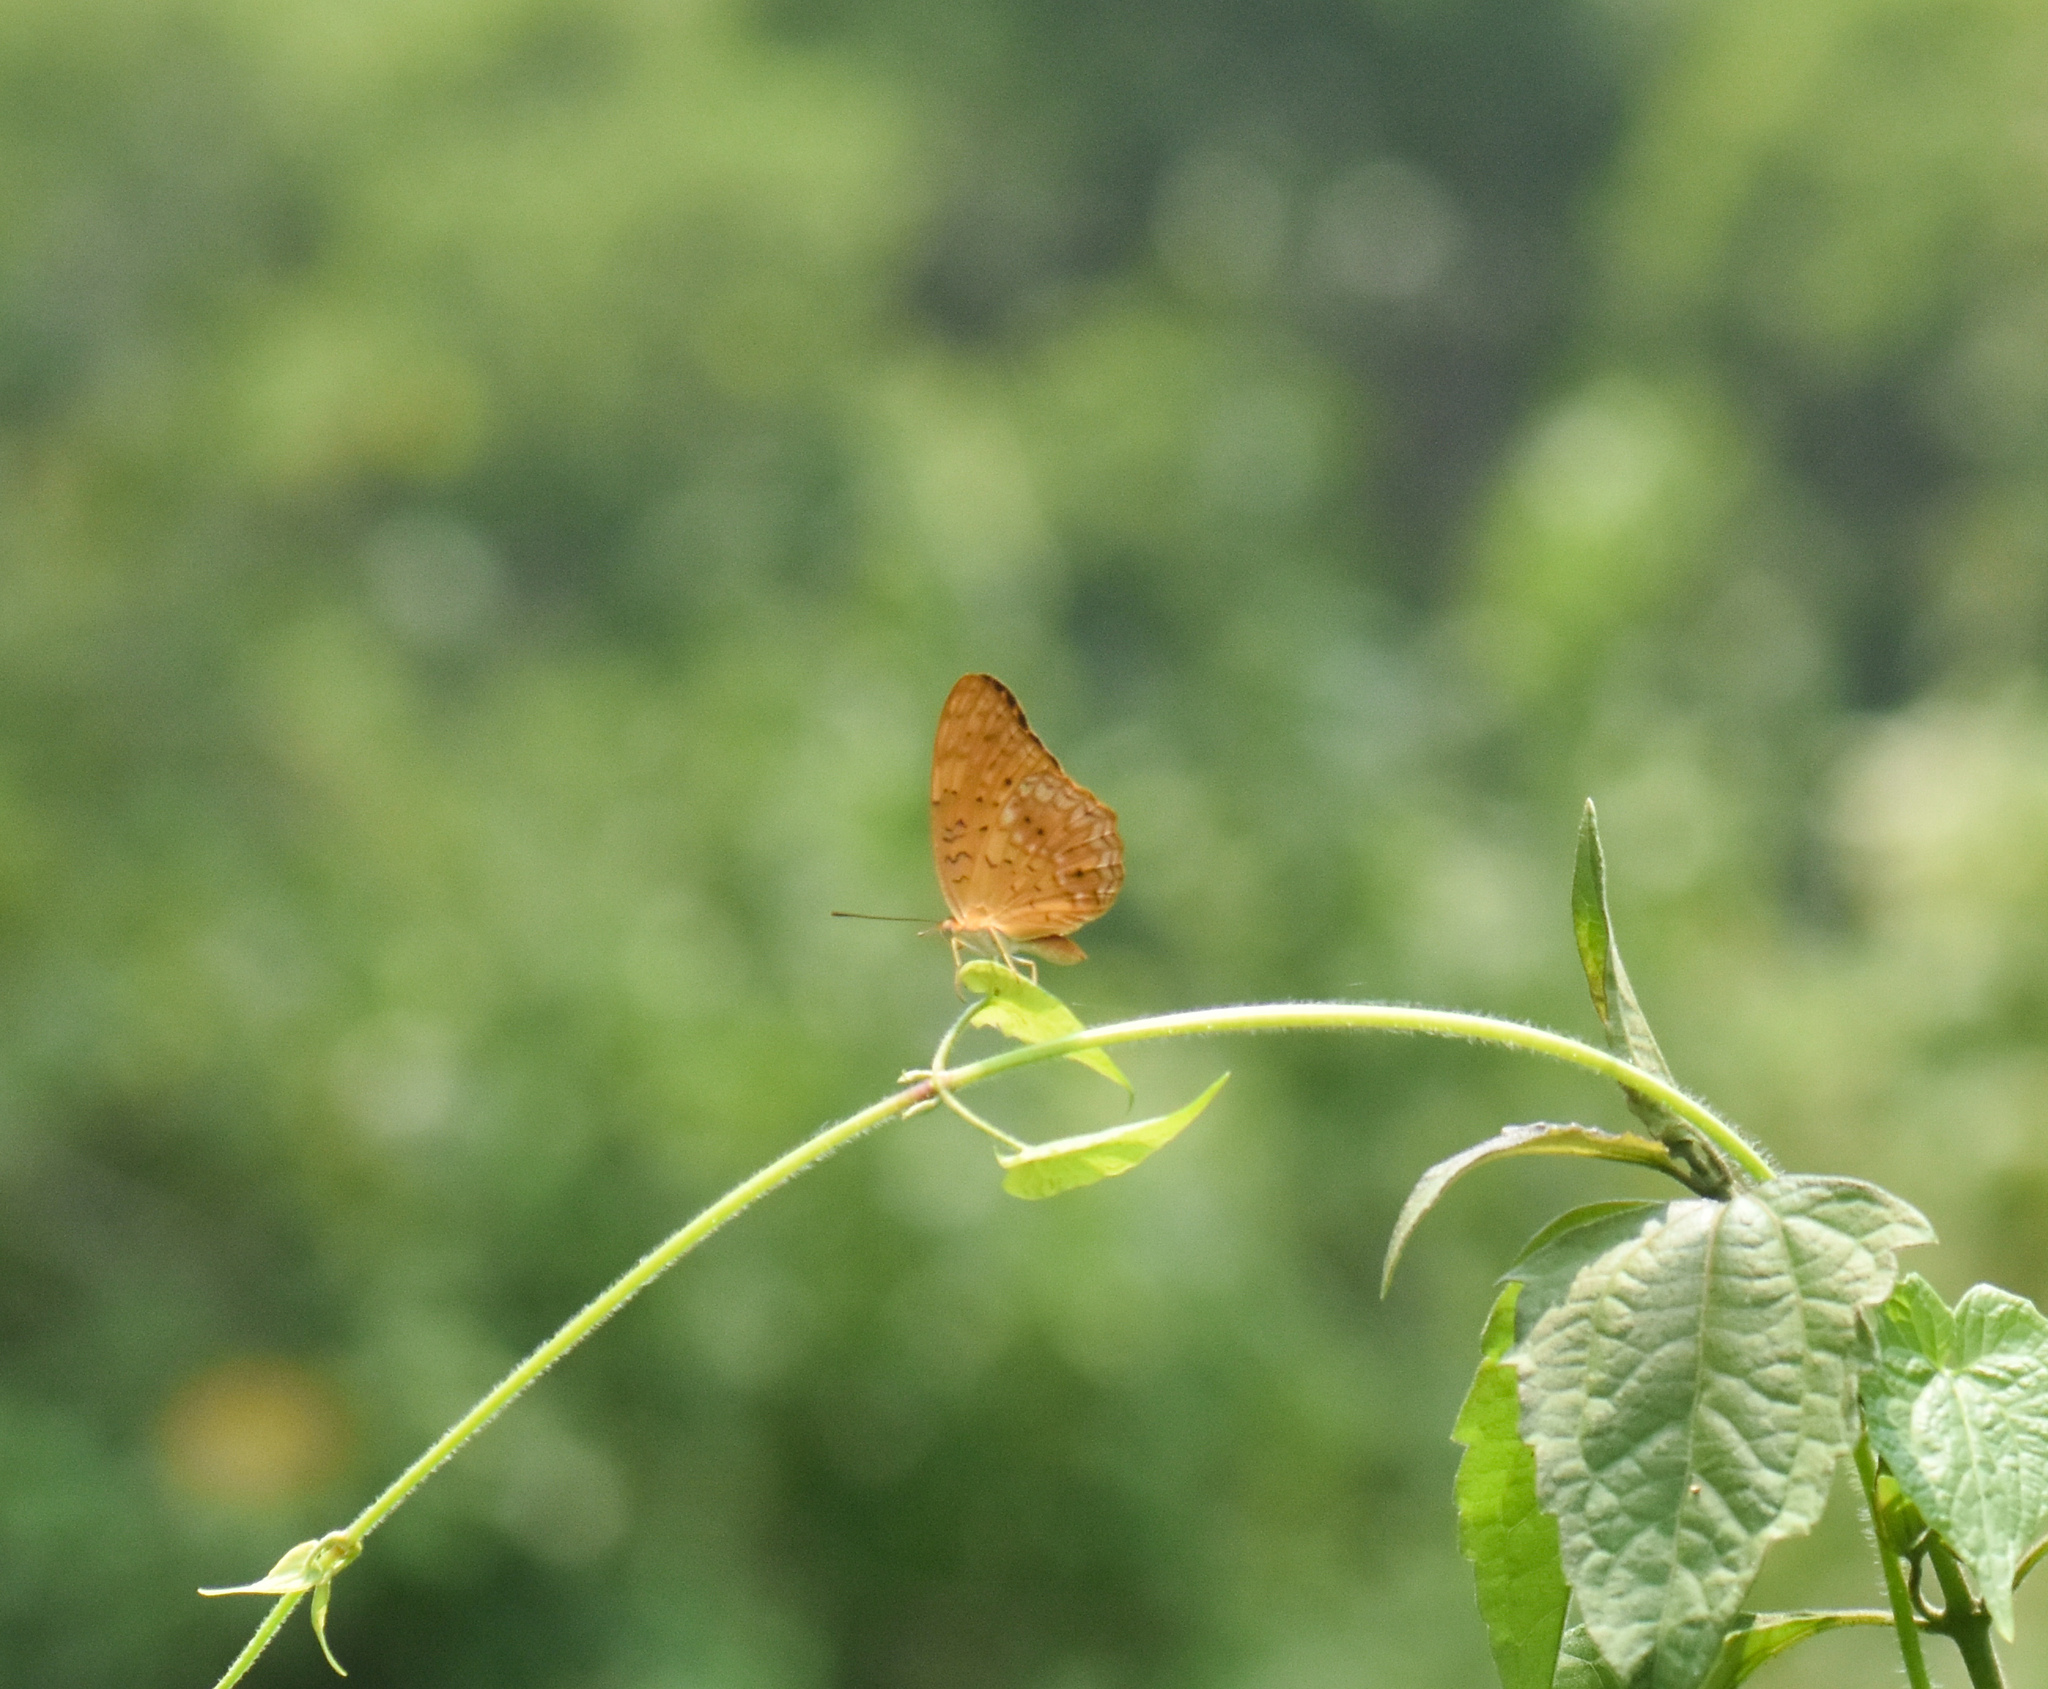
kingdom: Animalia
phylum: Arthropoda
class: Insecta
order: Lepidoptera
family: Nymphalidae
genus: Phalanta
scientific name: Phalanta phalantha
